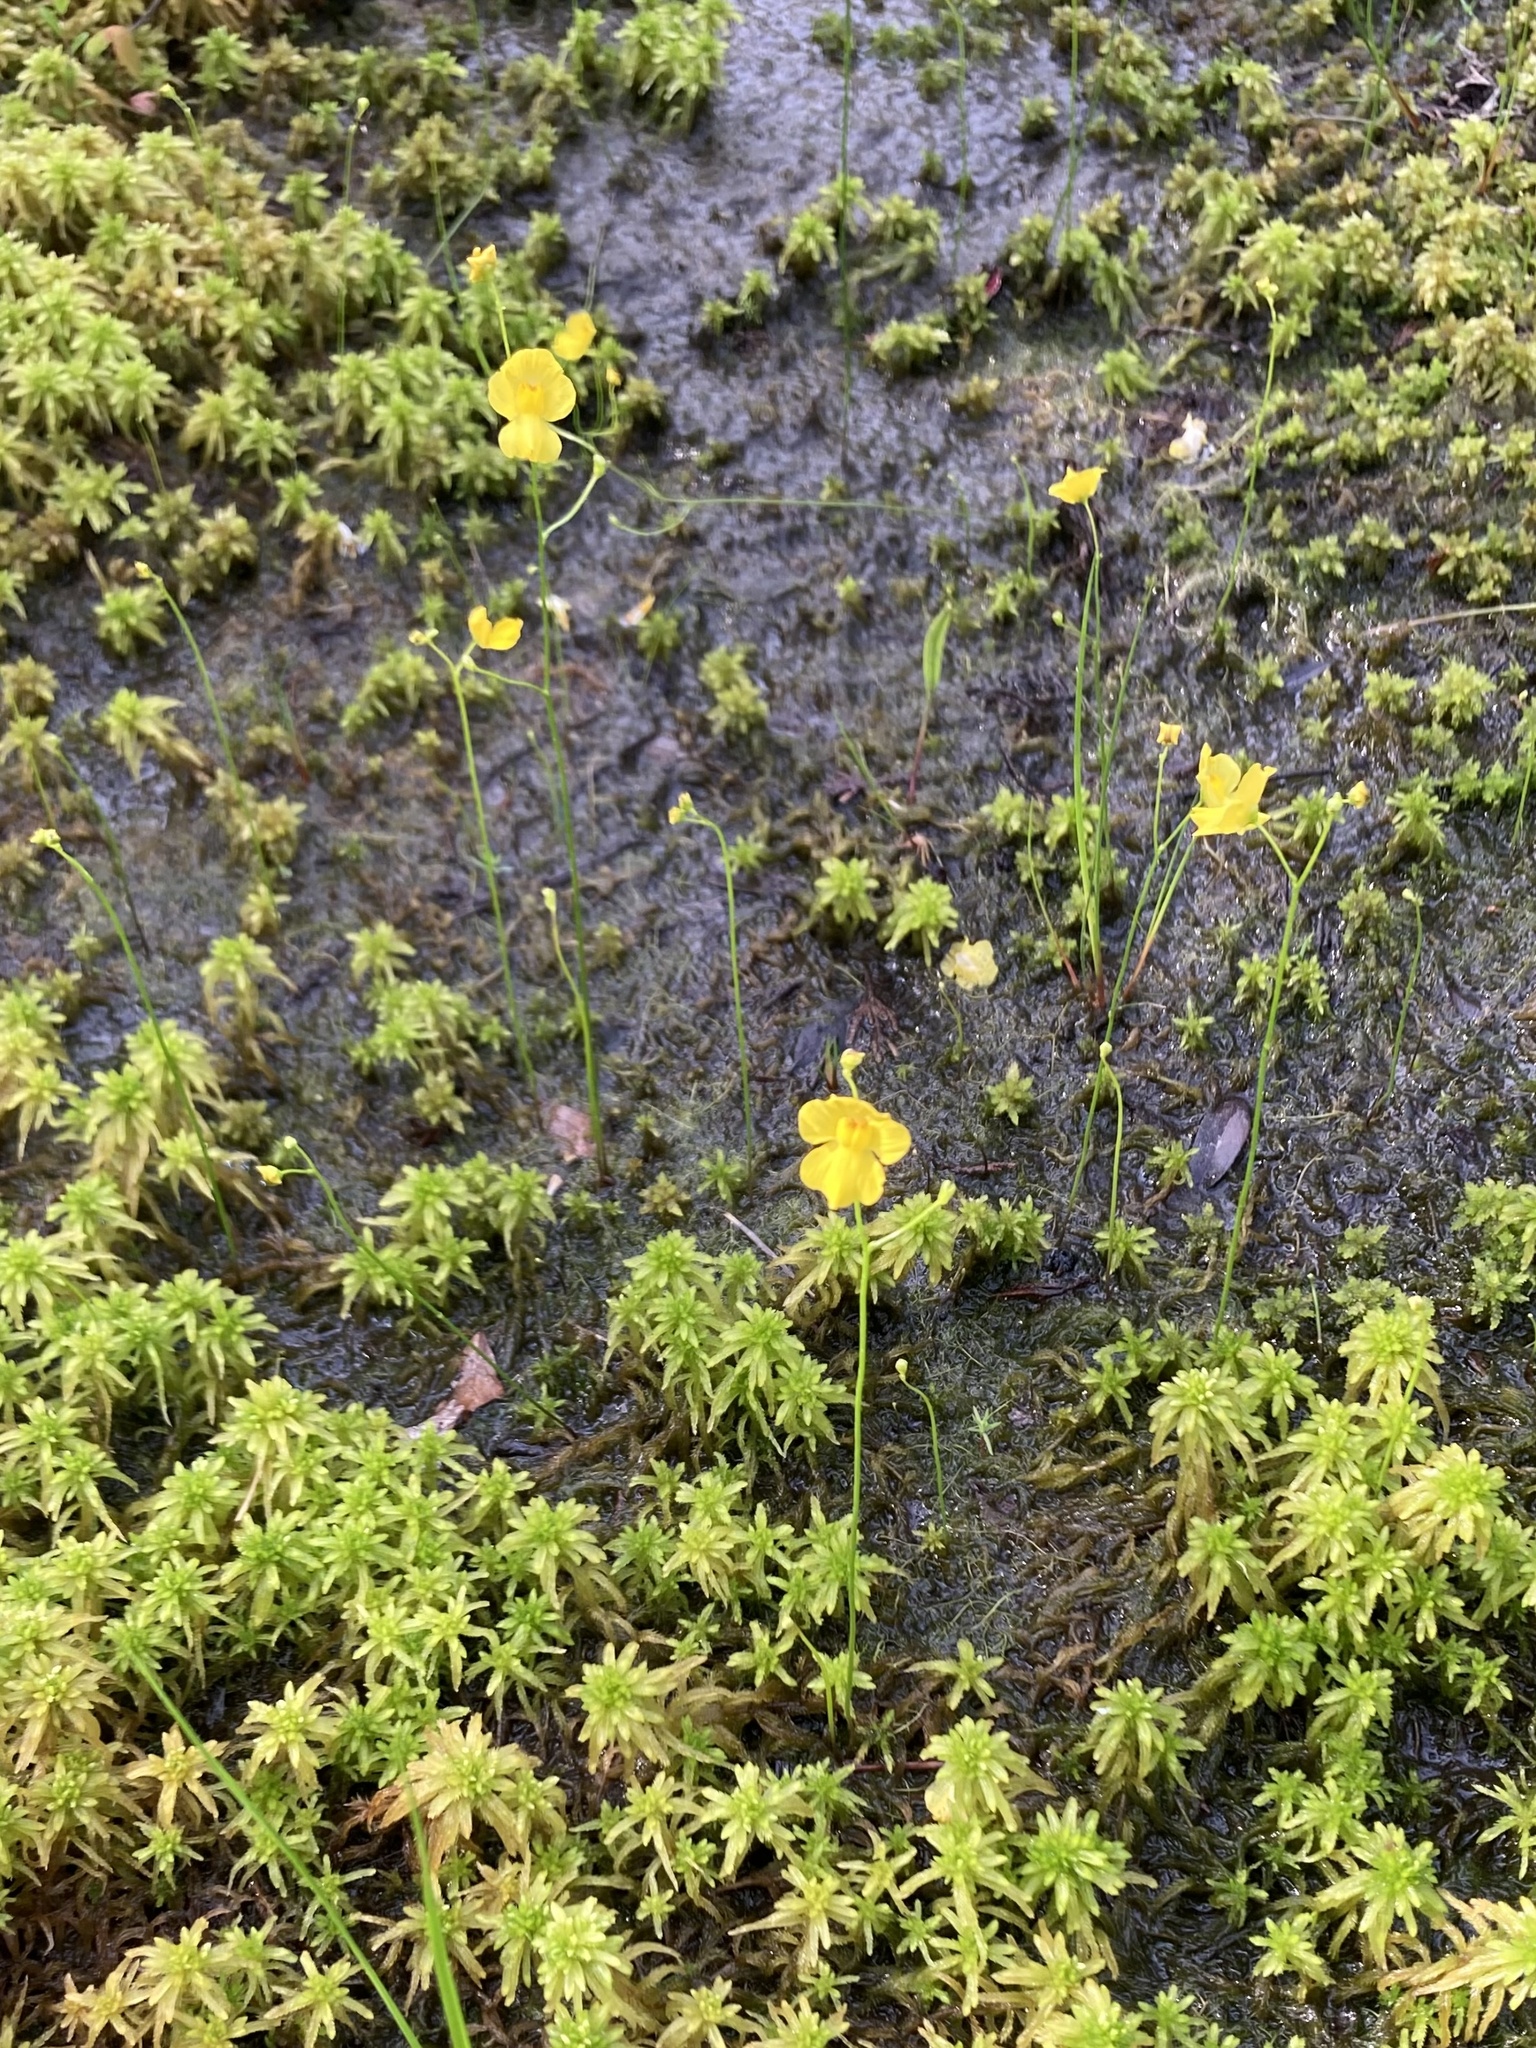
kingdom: Plantae
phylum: Tracheophyta
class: Magnoliopsida
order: Lamiales
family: Lentibulariaceae
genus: Utricularia
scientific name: Utricularia striata
